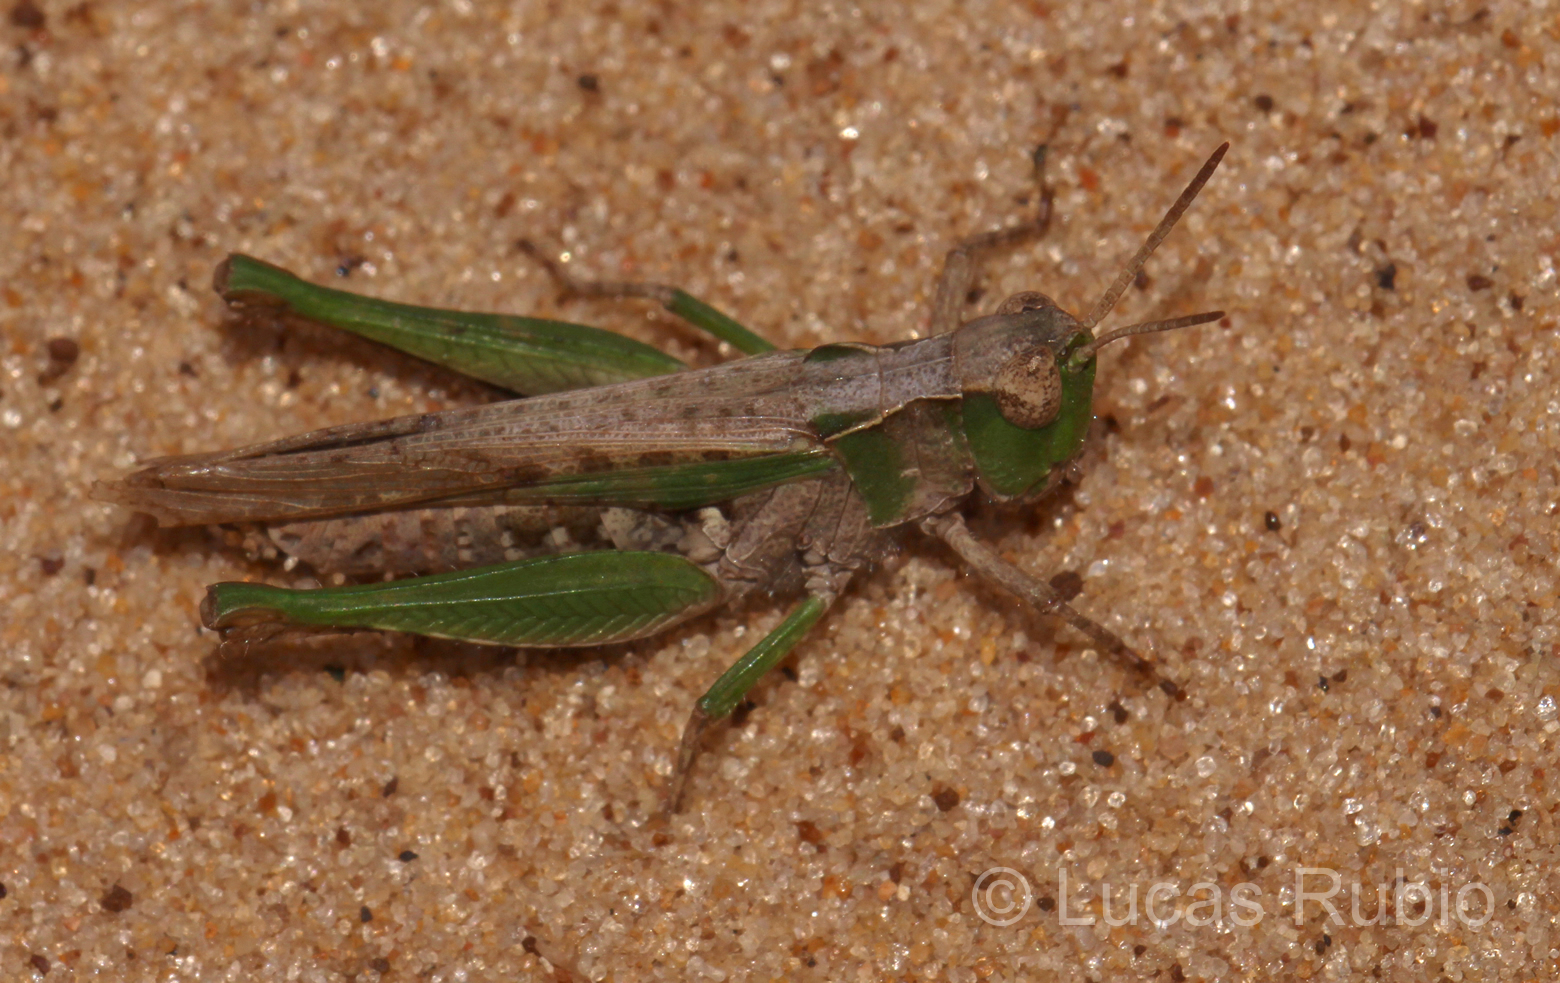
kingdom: Animalia
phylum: Arthropoda
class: Insecta
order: Orthoptera
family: Acrididae
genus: Orphulella
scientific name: Orphulella punctata
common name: Slant-faced grasshopper
